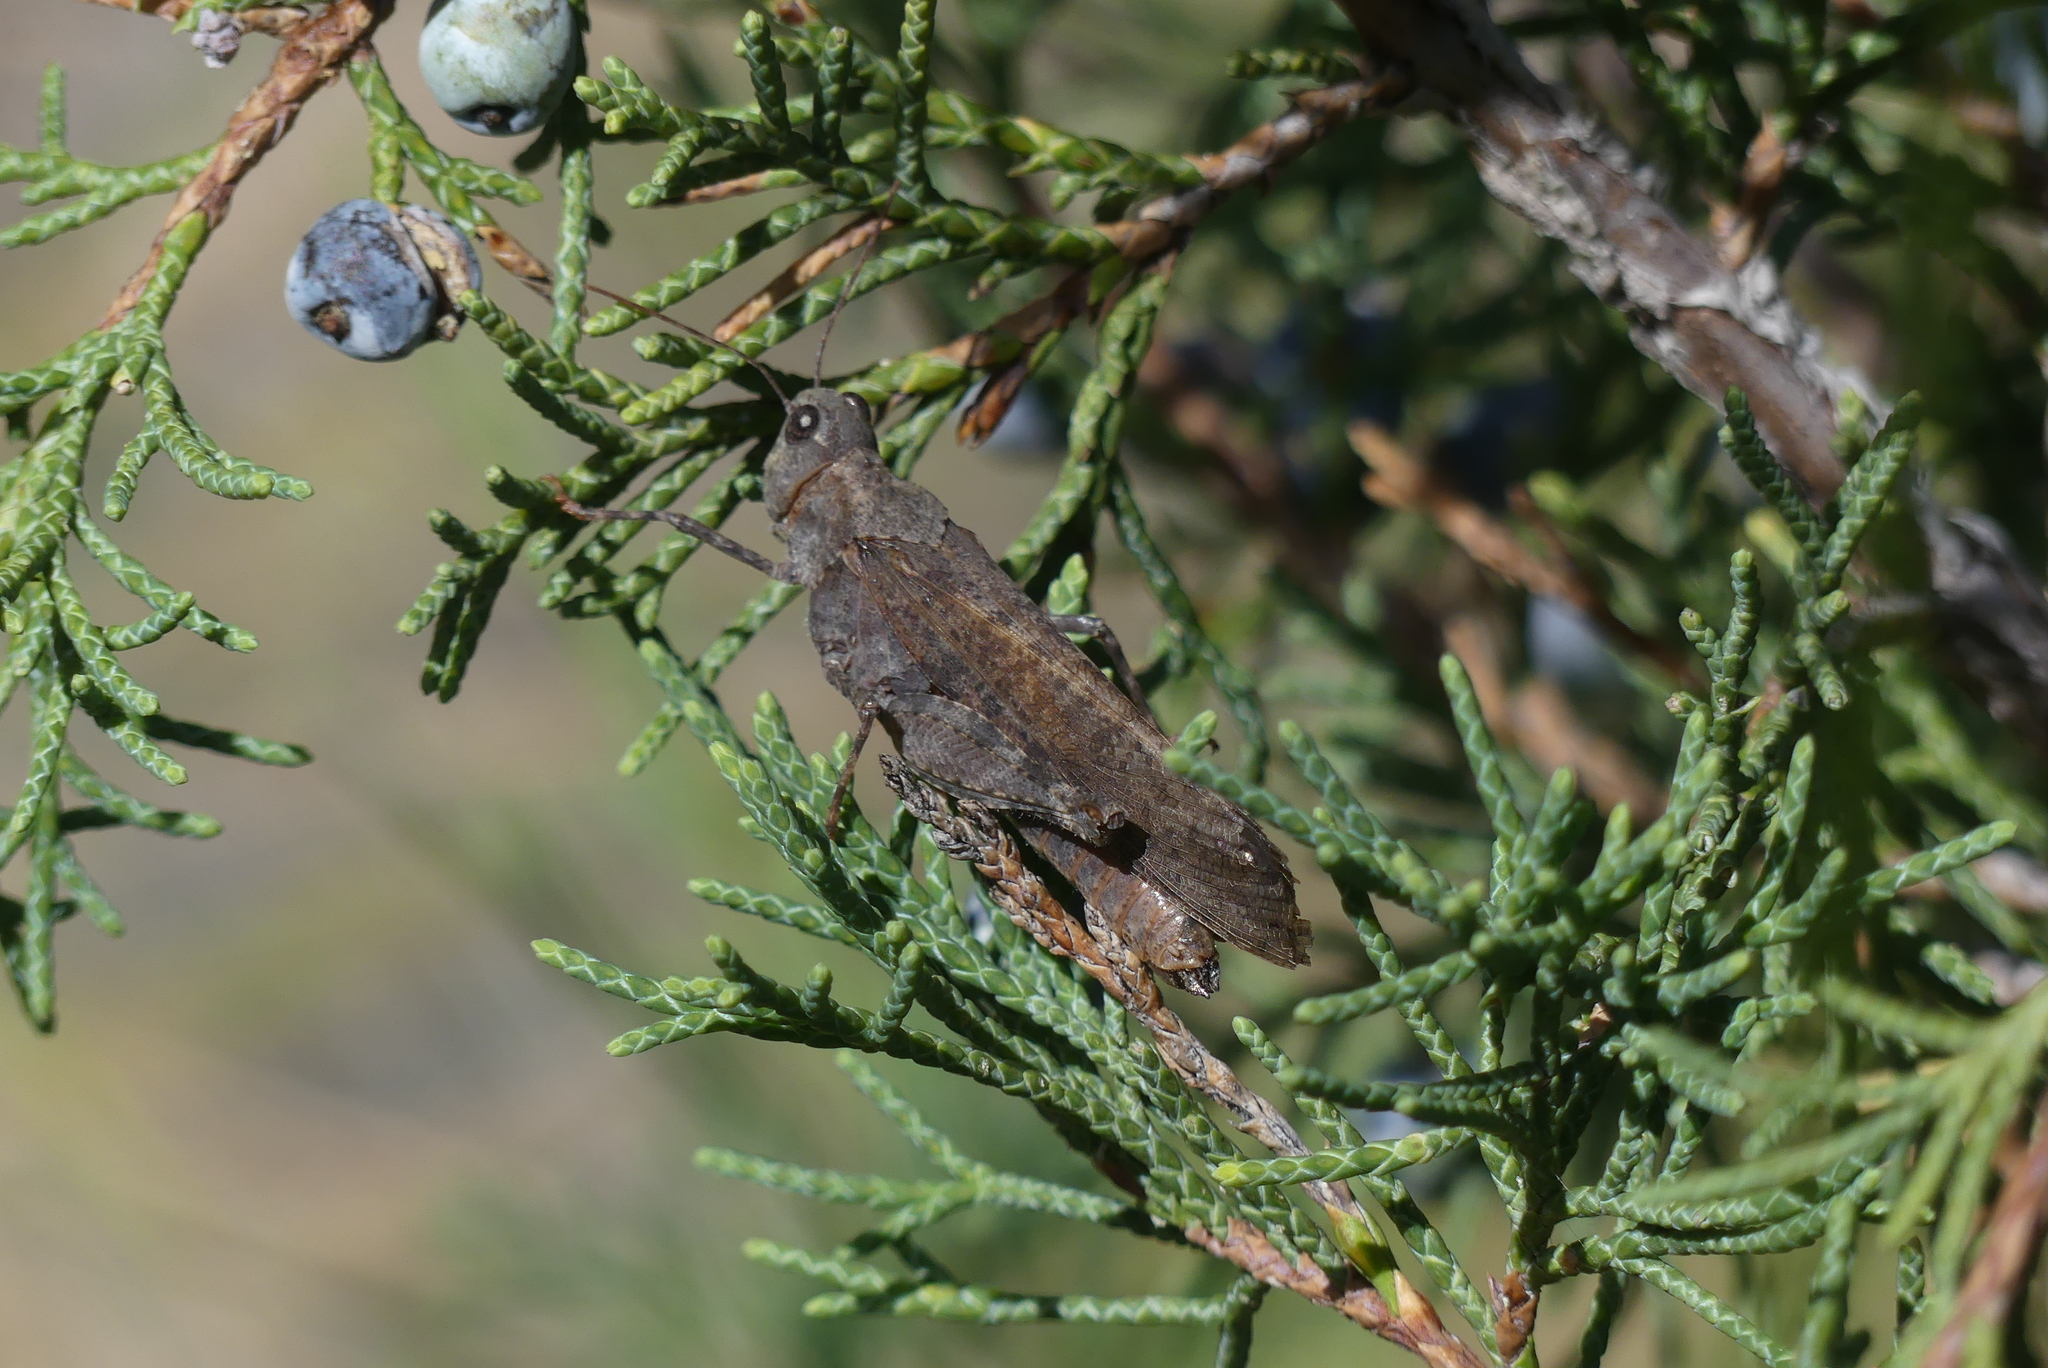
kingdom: Animalia
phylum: Arthropoda
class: Insecta
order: Orthoptera
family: Acrididae
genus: Trimerotropis
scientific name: Trimerotropis verruculata
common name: Crackling forest grasshopper
